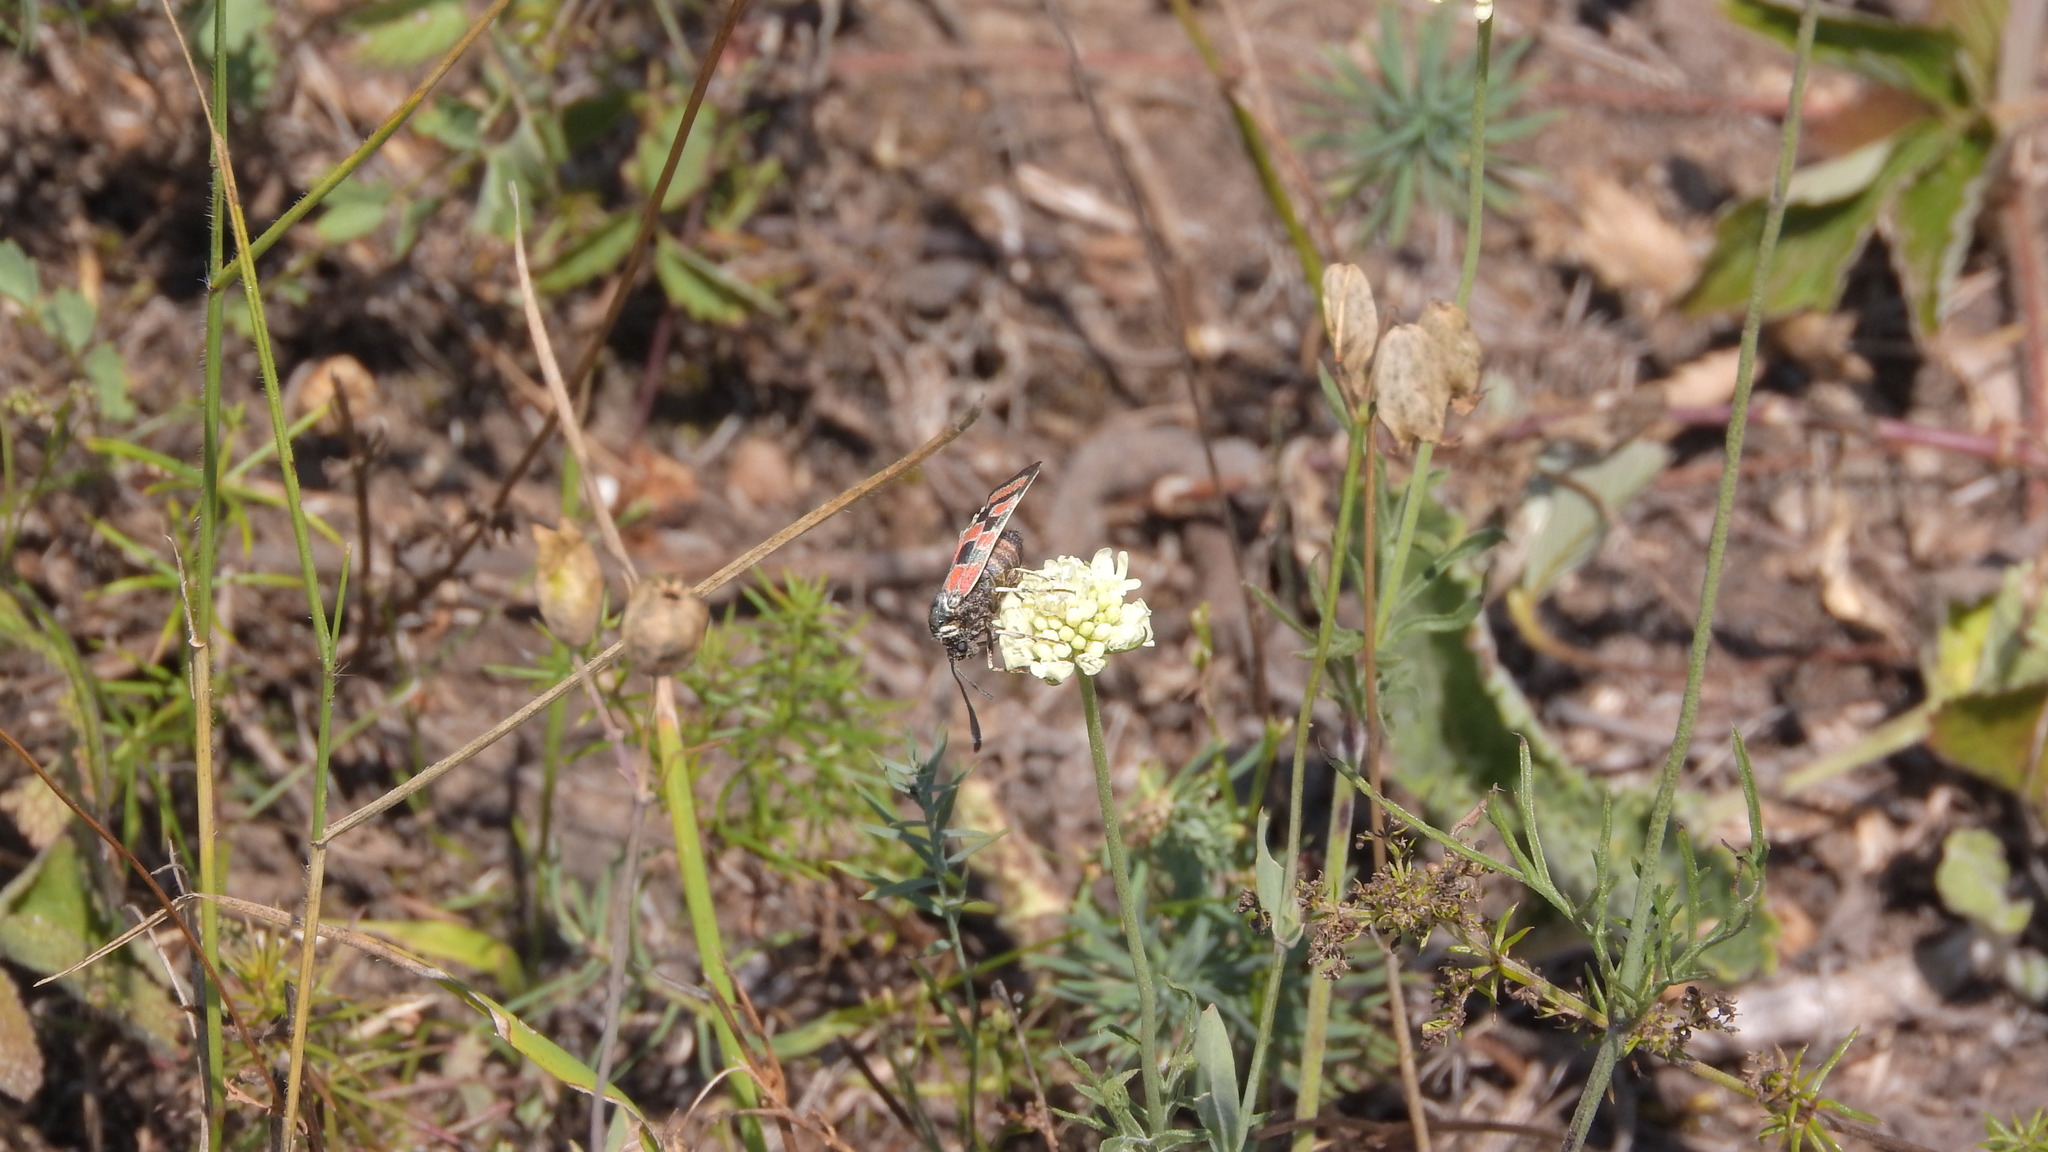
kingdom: Animalia
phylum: Arthropoda
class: Insecta
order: Lepidoptera
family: Zygaenidae
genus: Zygaena
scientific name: Zygaena carniolica
